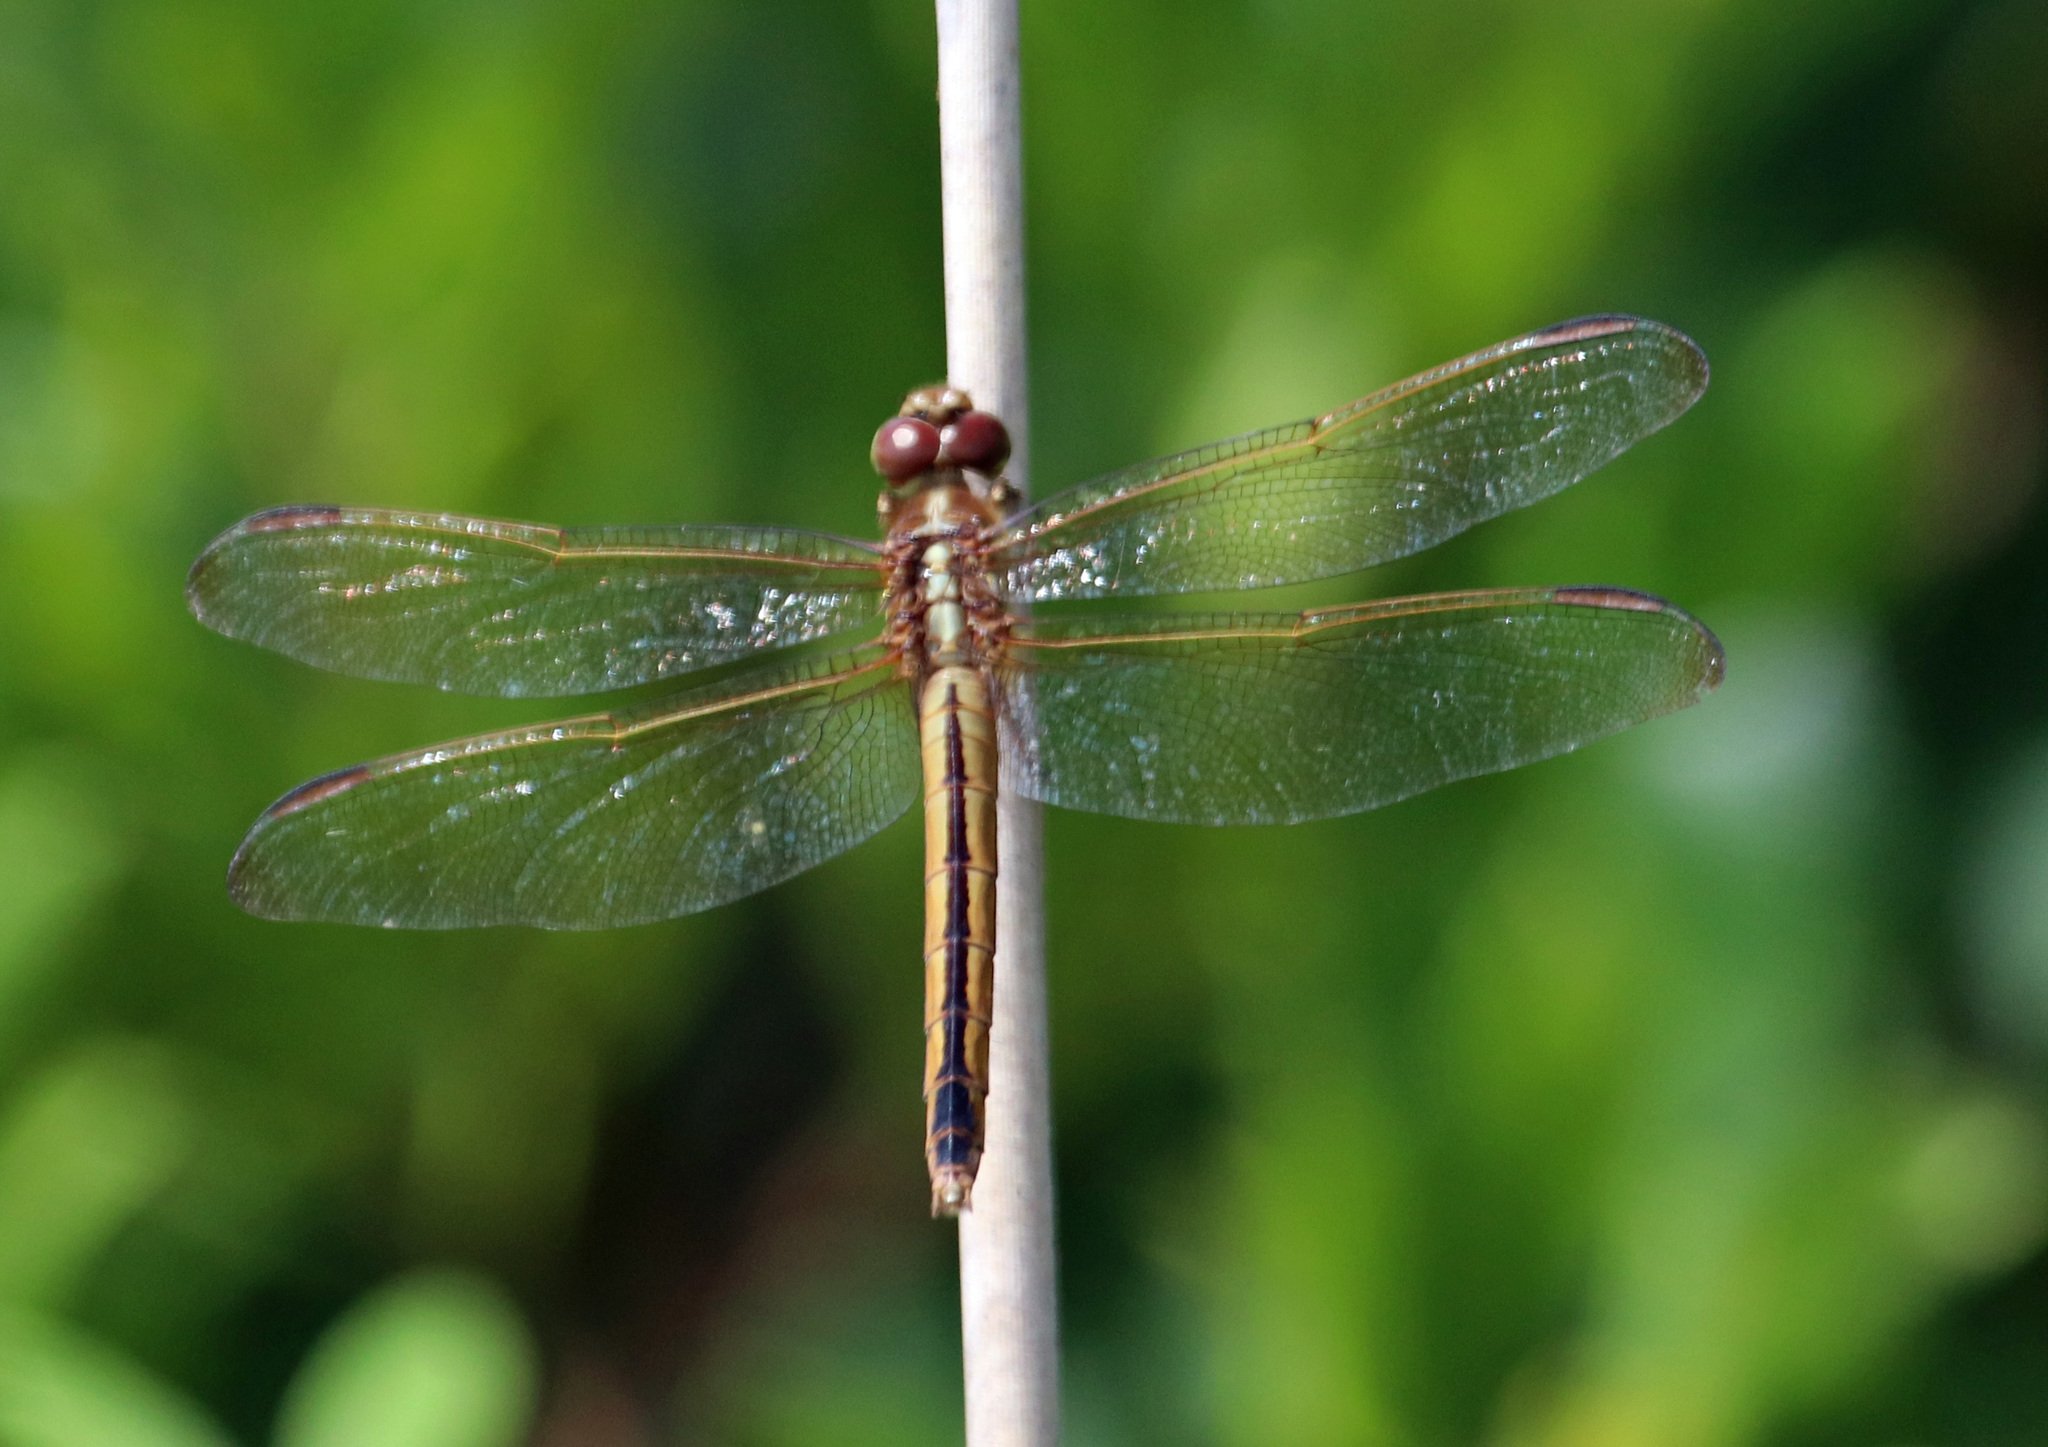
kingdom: Animalia
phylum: Arthropoda
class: Insecta
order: Odonata
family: Libellulidae
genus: Libellula
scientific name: Libellula needhami
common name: Needham's skimmer
